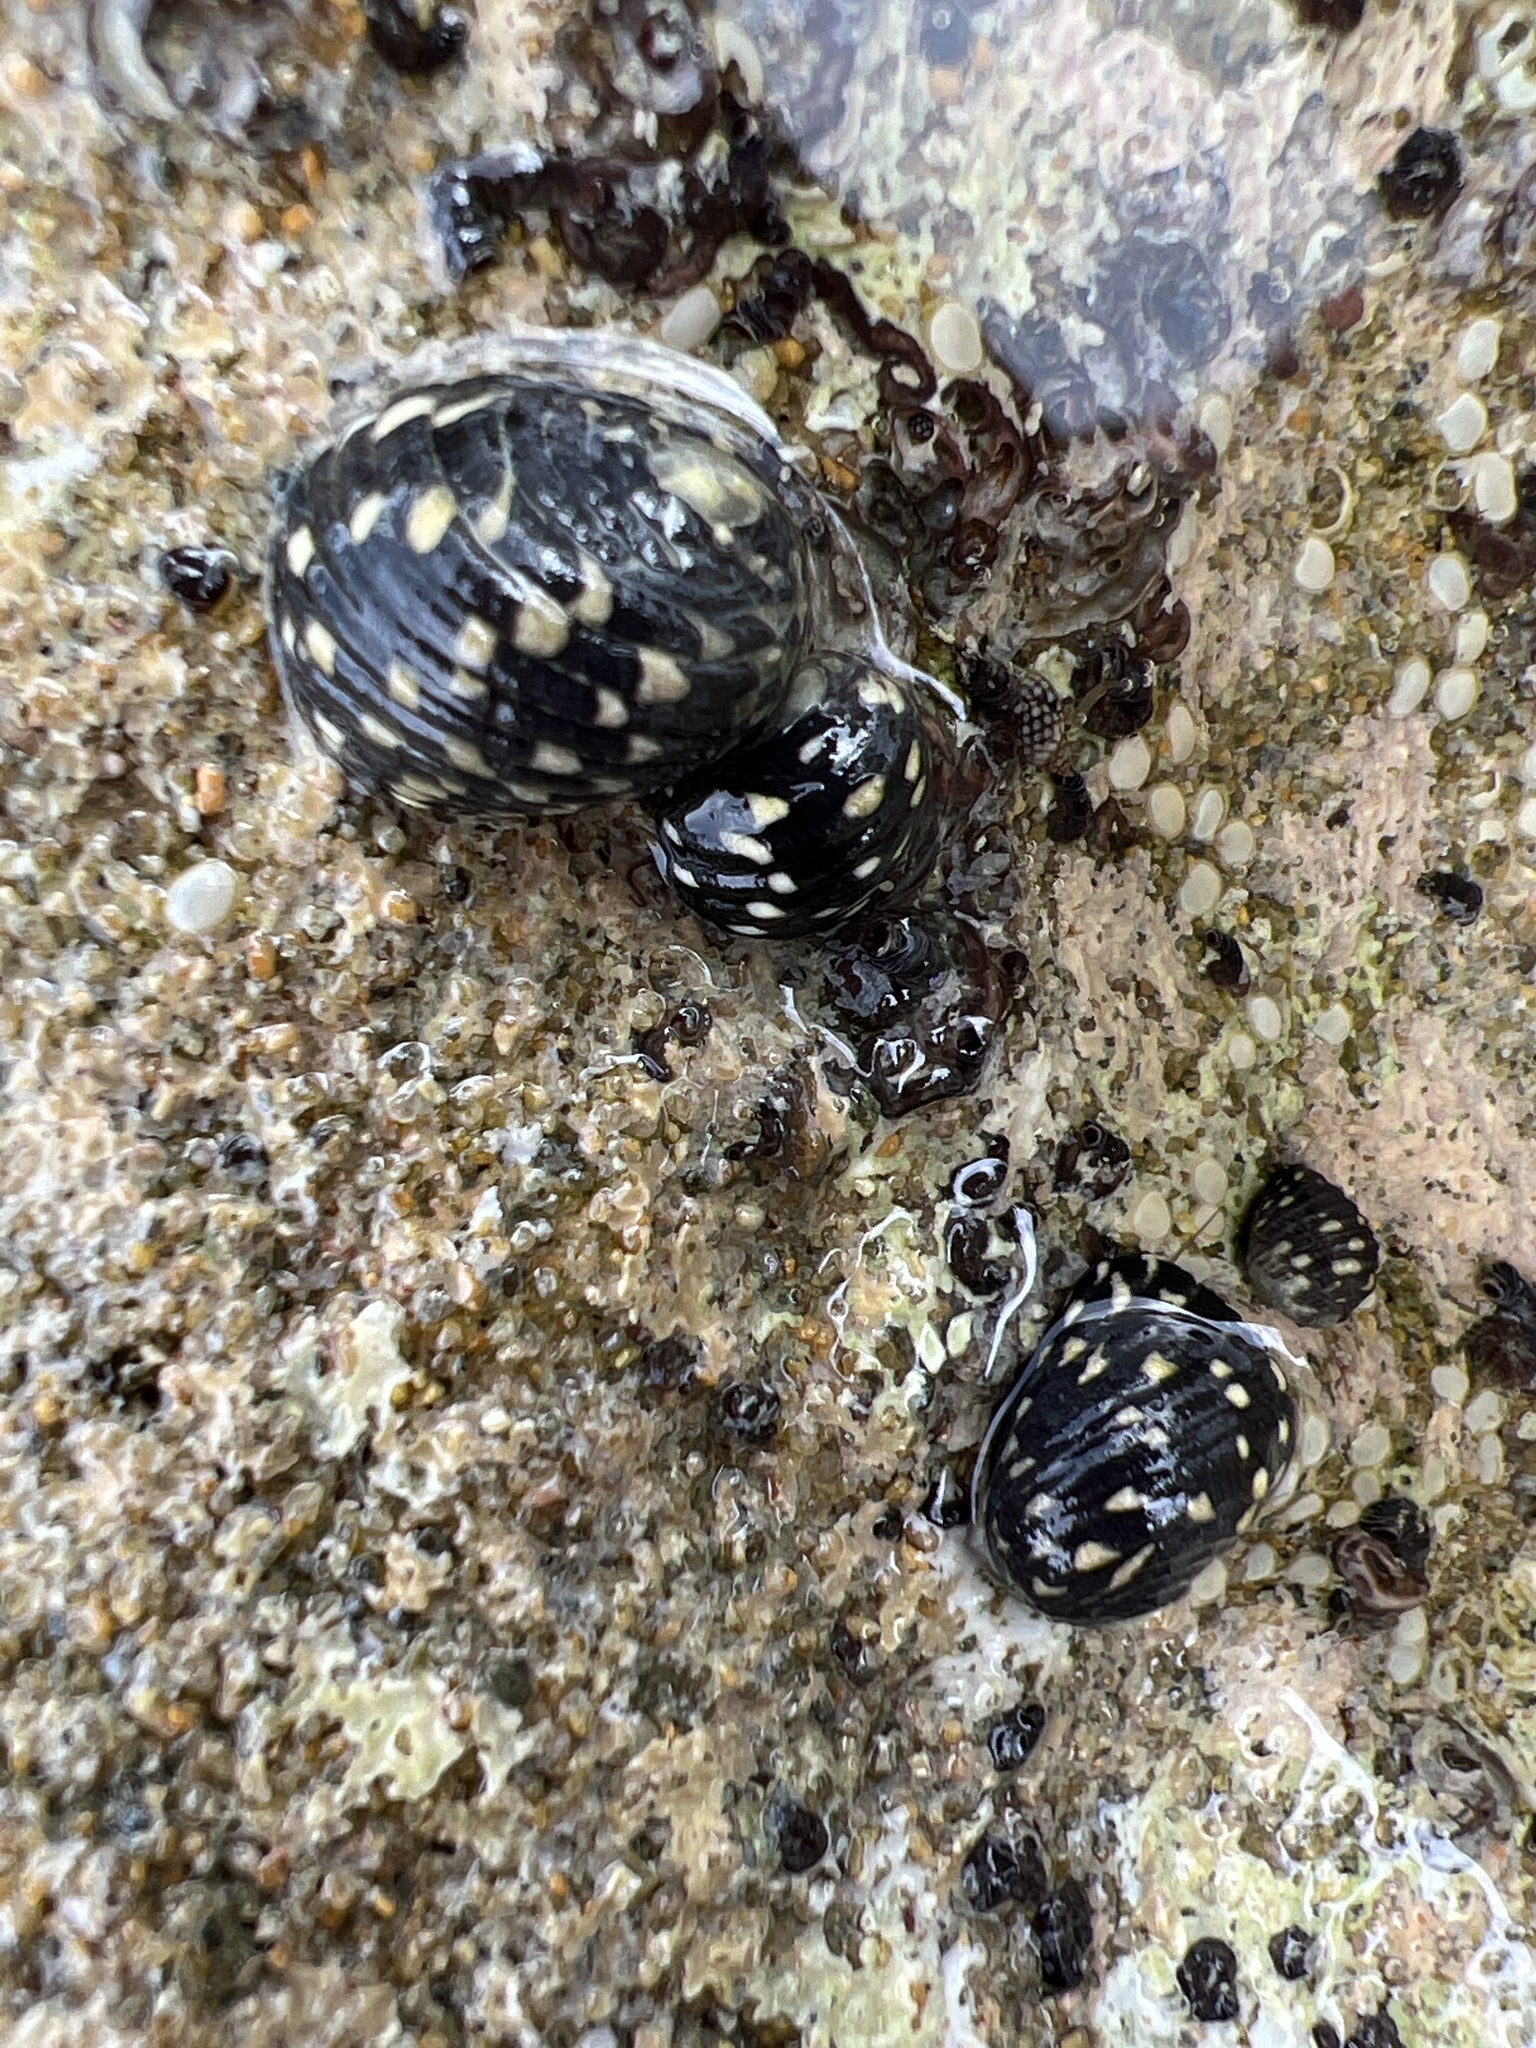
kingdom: Animalia
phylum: Mollusca
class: Gastropoda
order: Cycloneritida
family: Neritidae
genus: Nerita
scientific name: Nerita tessellata
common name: Checkered nerite
